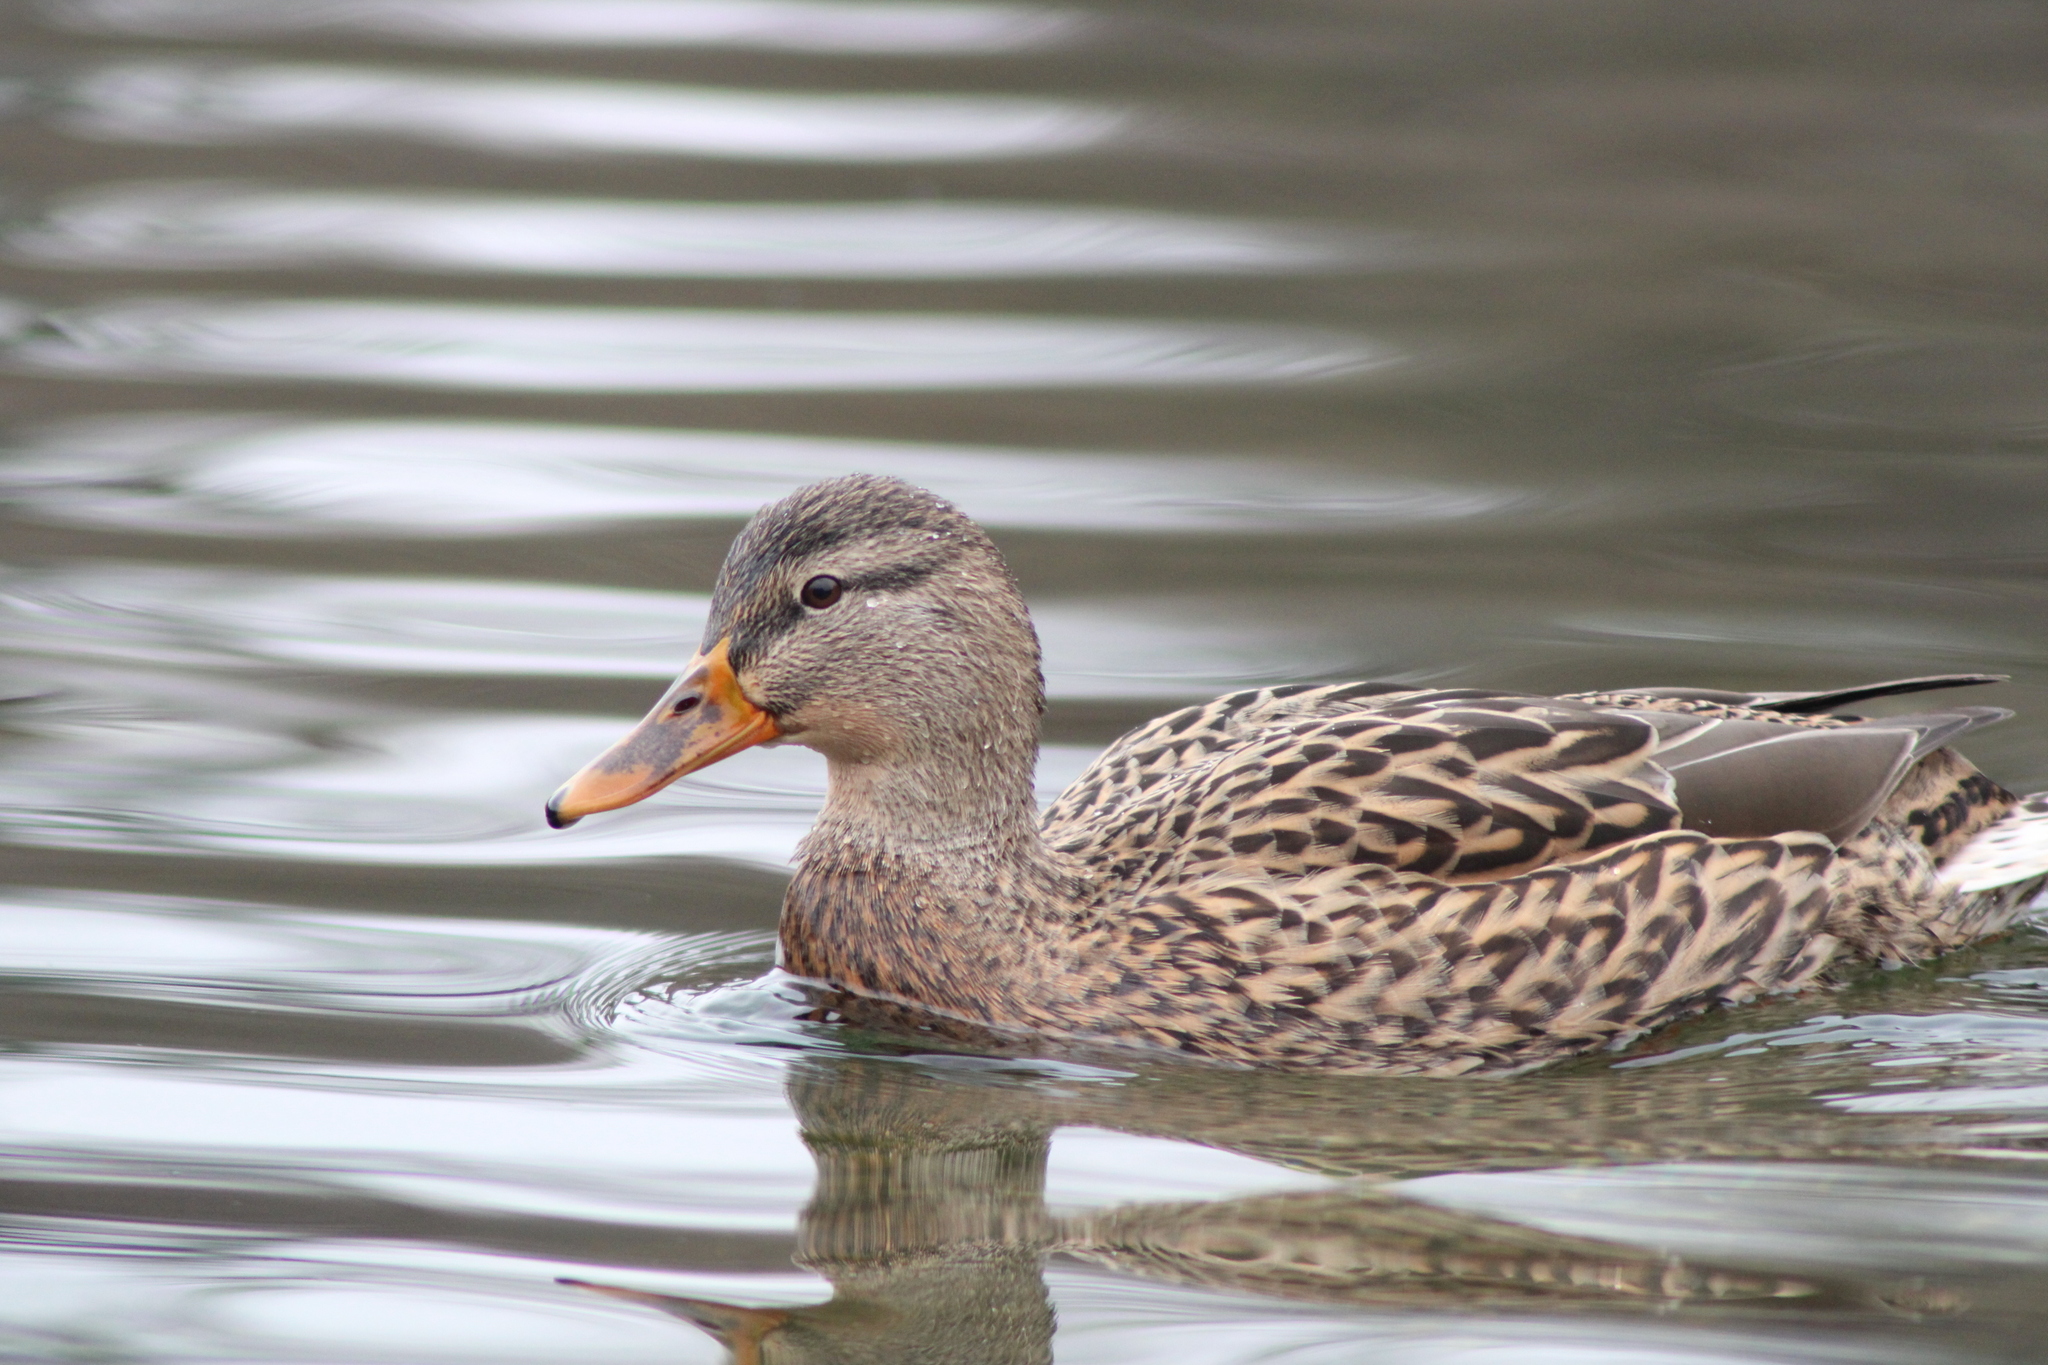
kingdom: Animalia
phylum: Chordata
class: Aves
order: Anseriformes
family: Anatidae
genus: Anas
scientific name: Anas platyrhynchos
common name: Mallard
